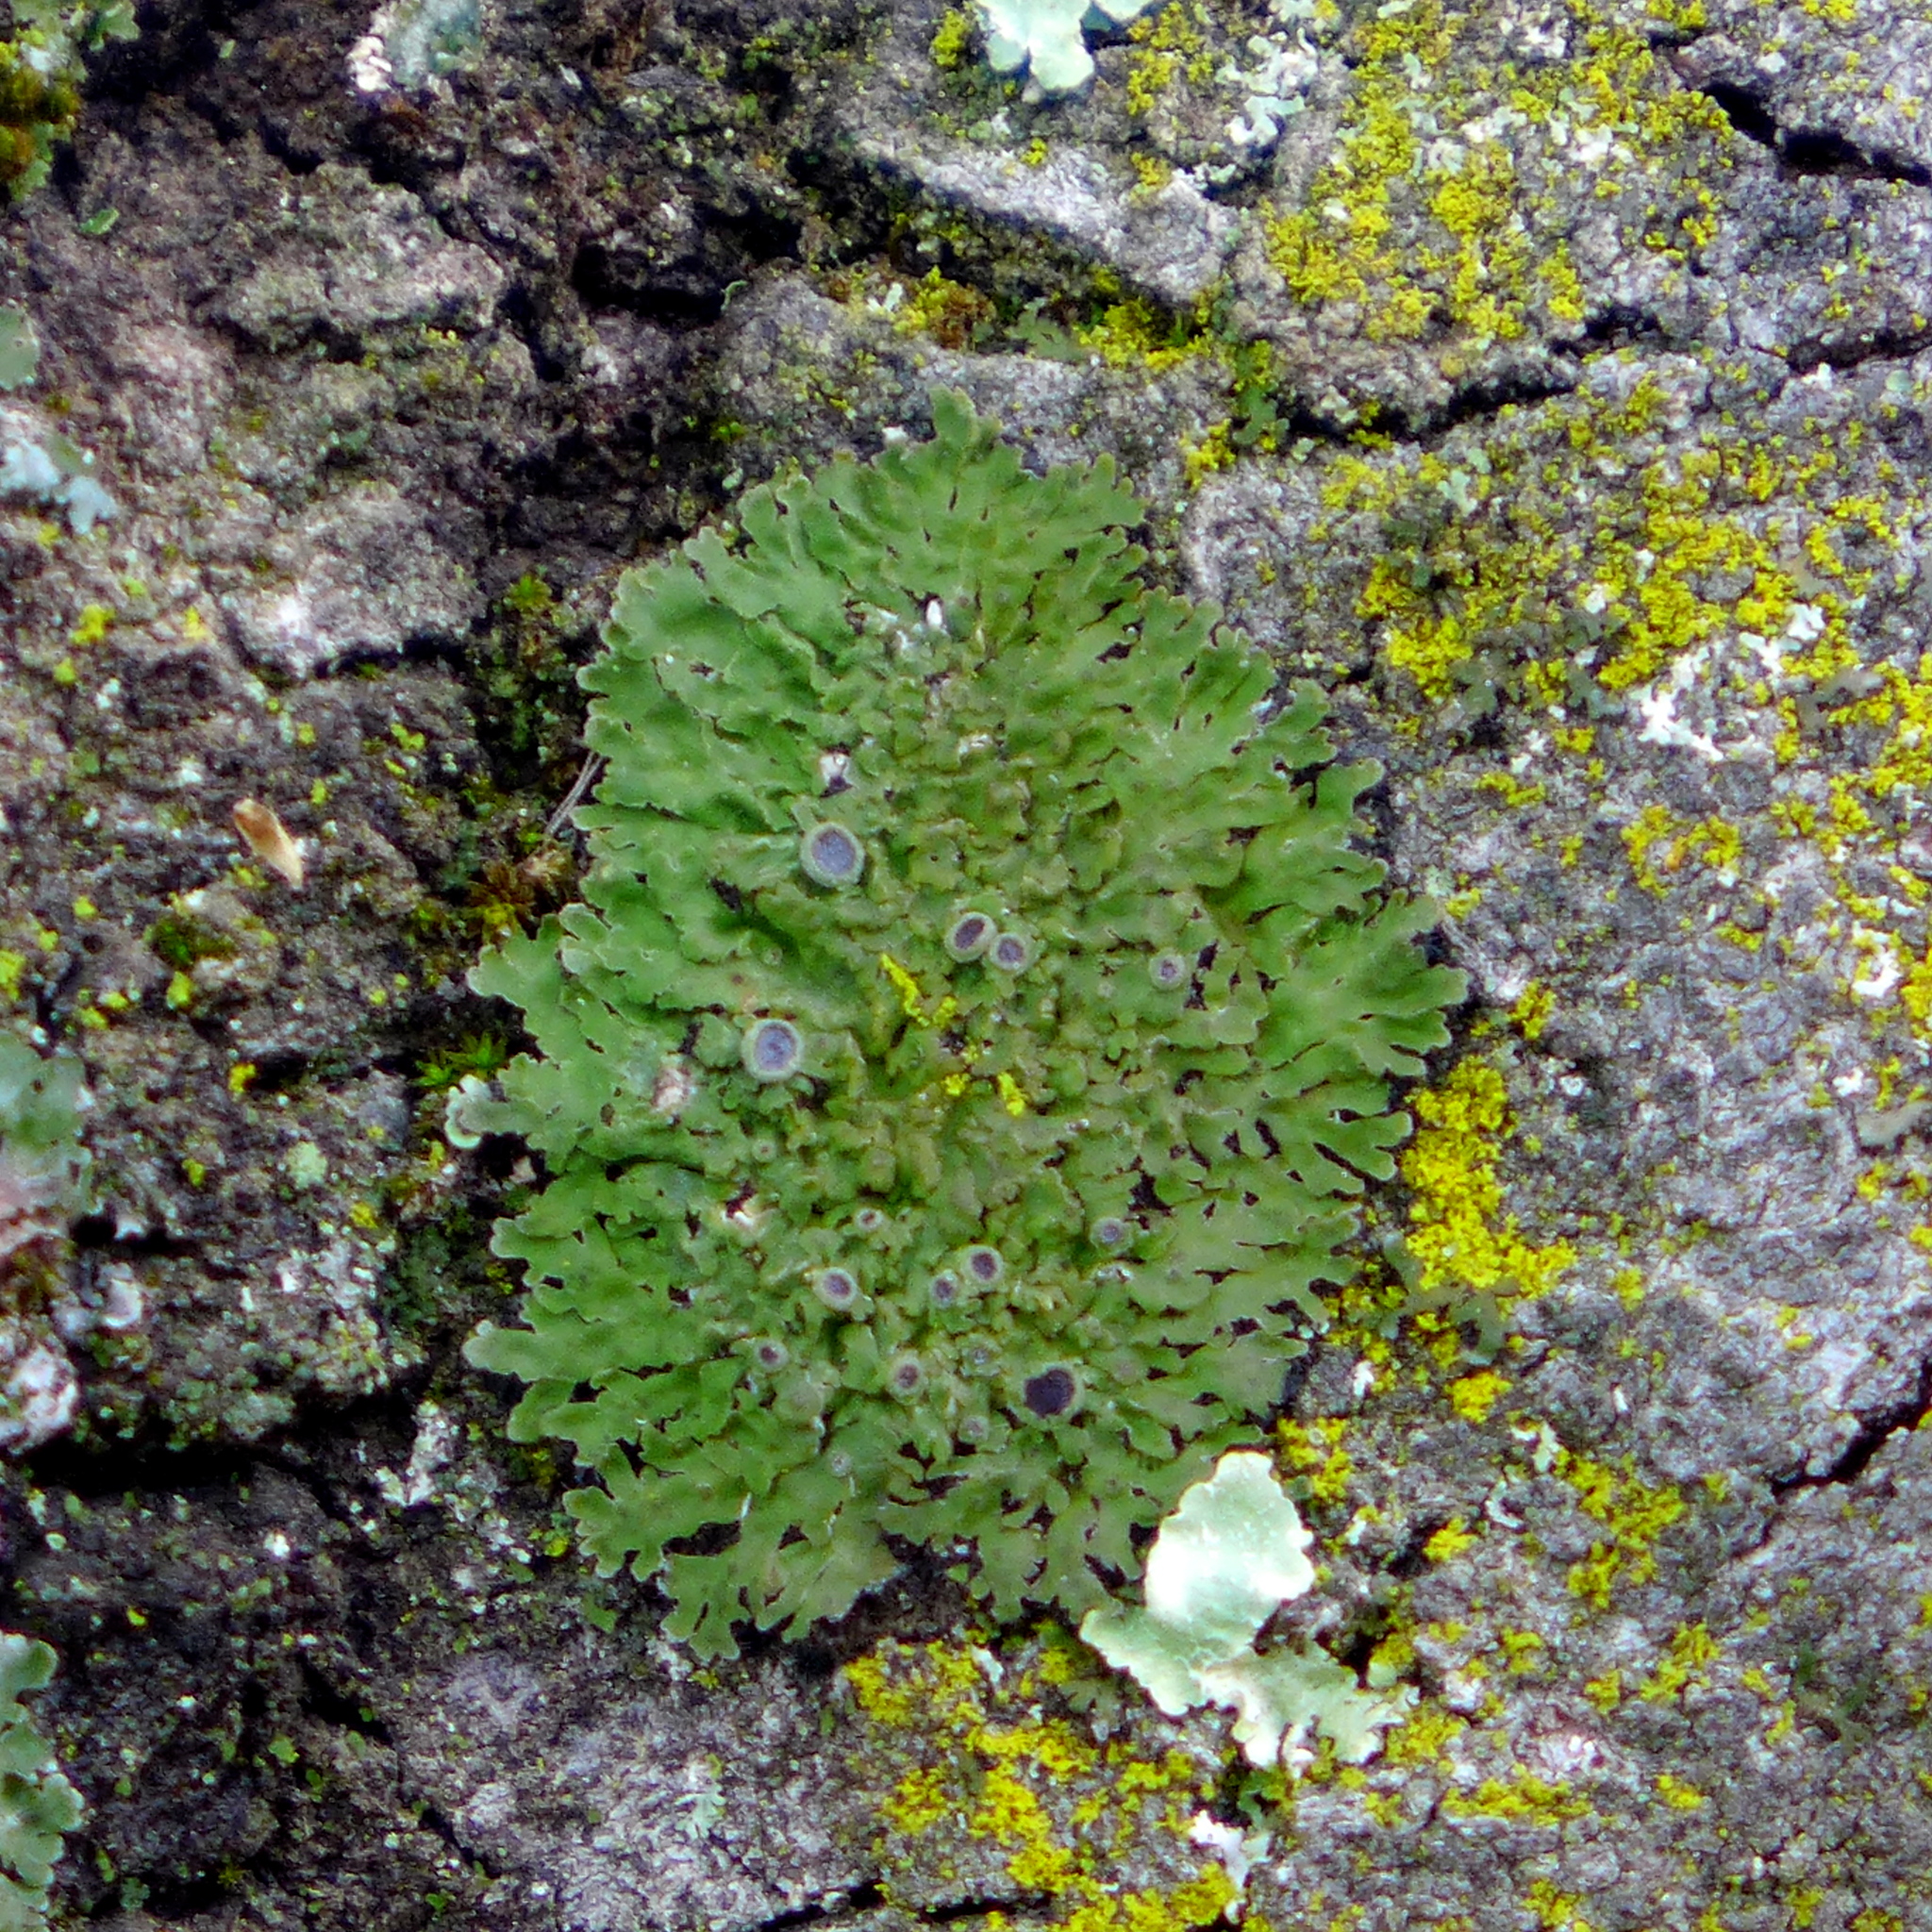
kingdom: Fungi
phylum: Ascomycota
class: Lecanoromycetes
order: Caliciales
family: Physciaceae
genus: Physconia
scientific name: Physconia americana
